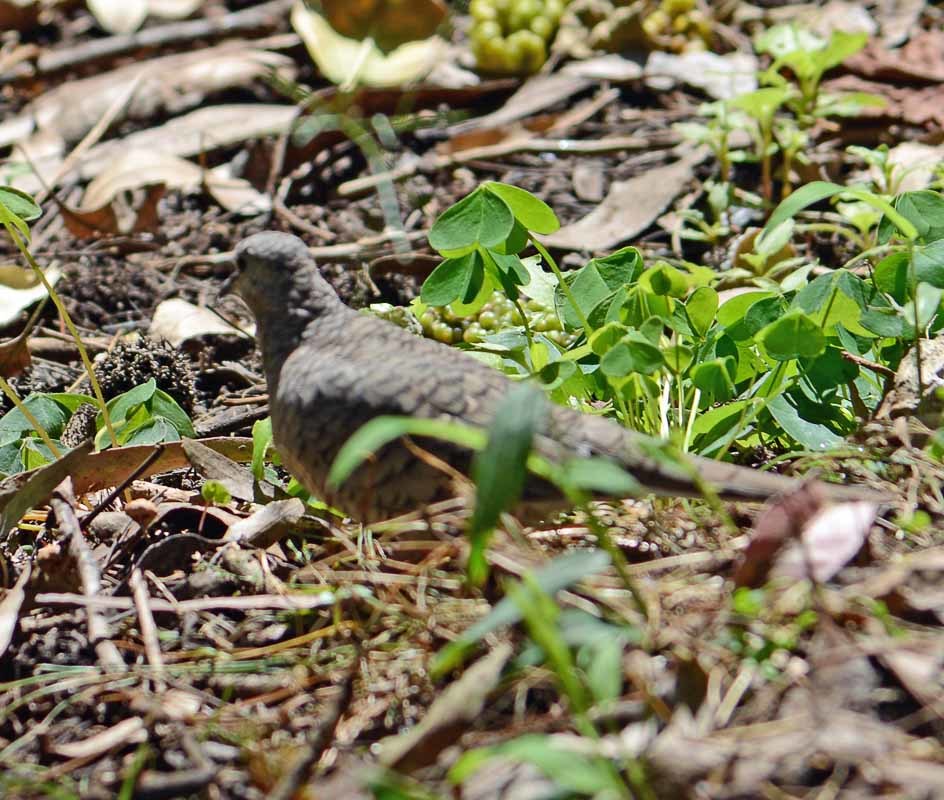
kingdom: Animalia
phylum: Chordata
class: Aves
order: Columbiformes
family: Columbidae
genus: Columbina
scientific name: Columbina inca
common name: Inca dove
